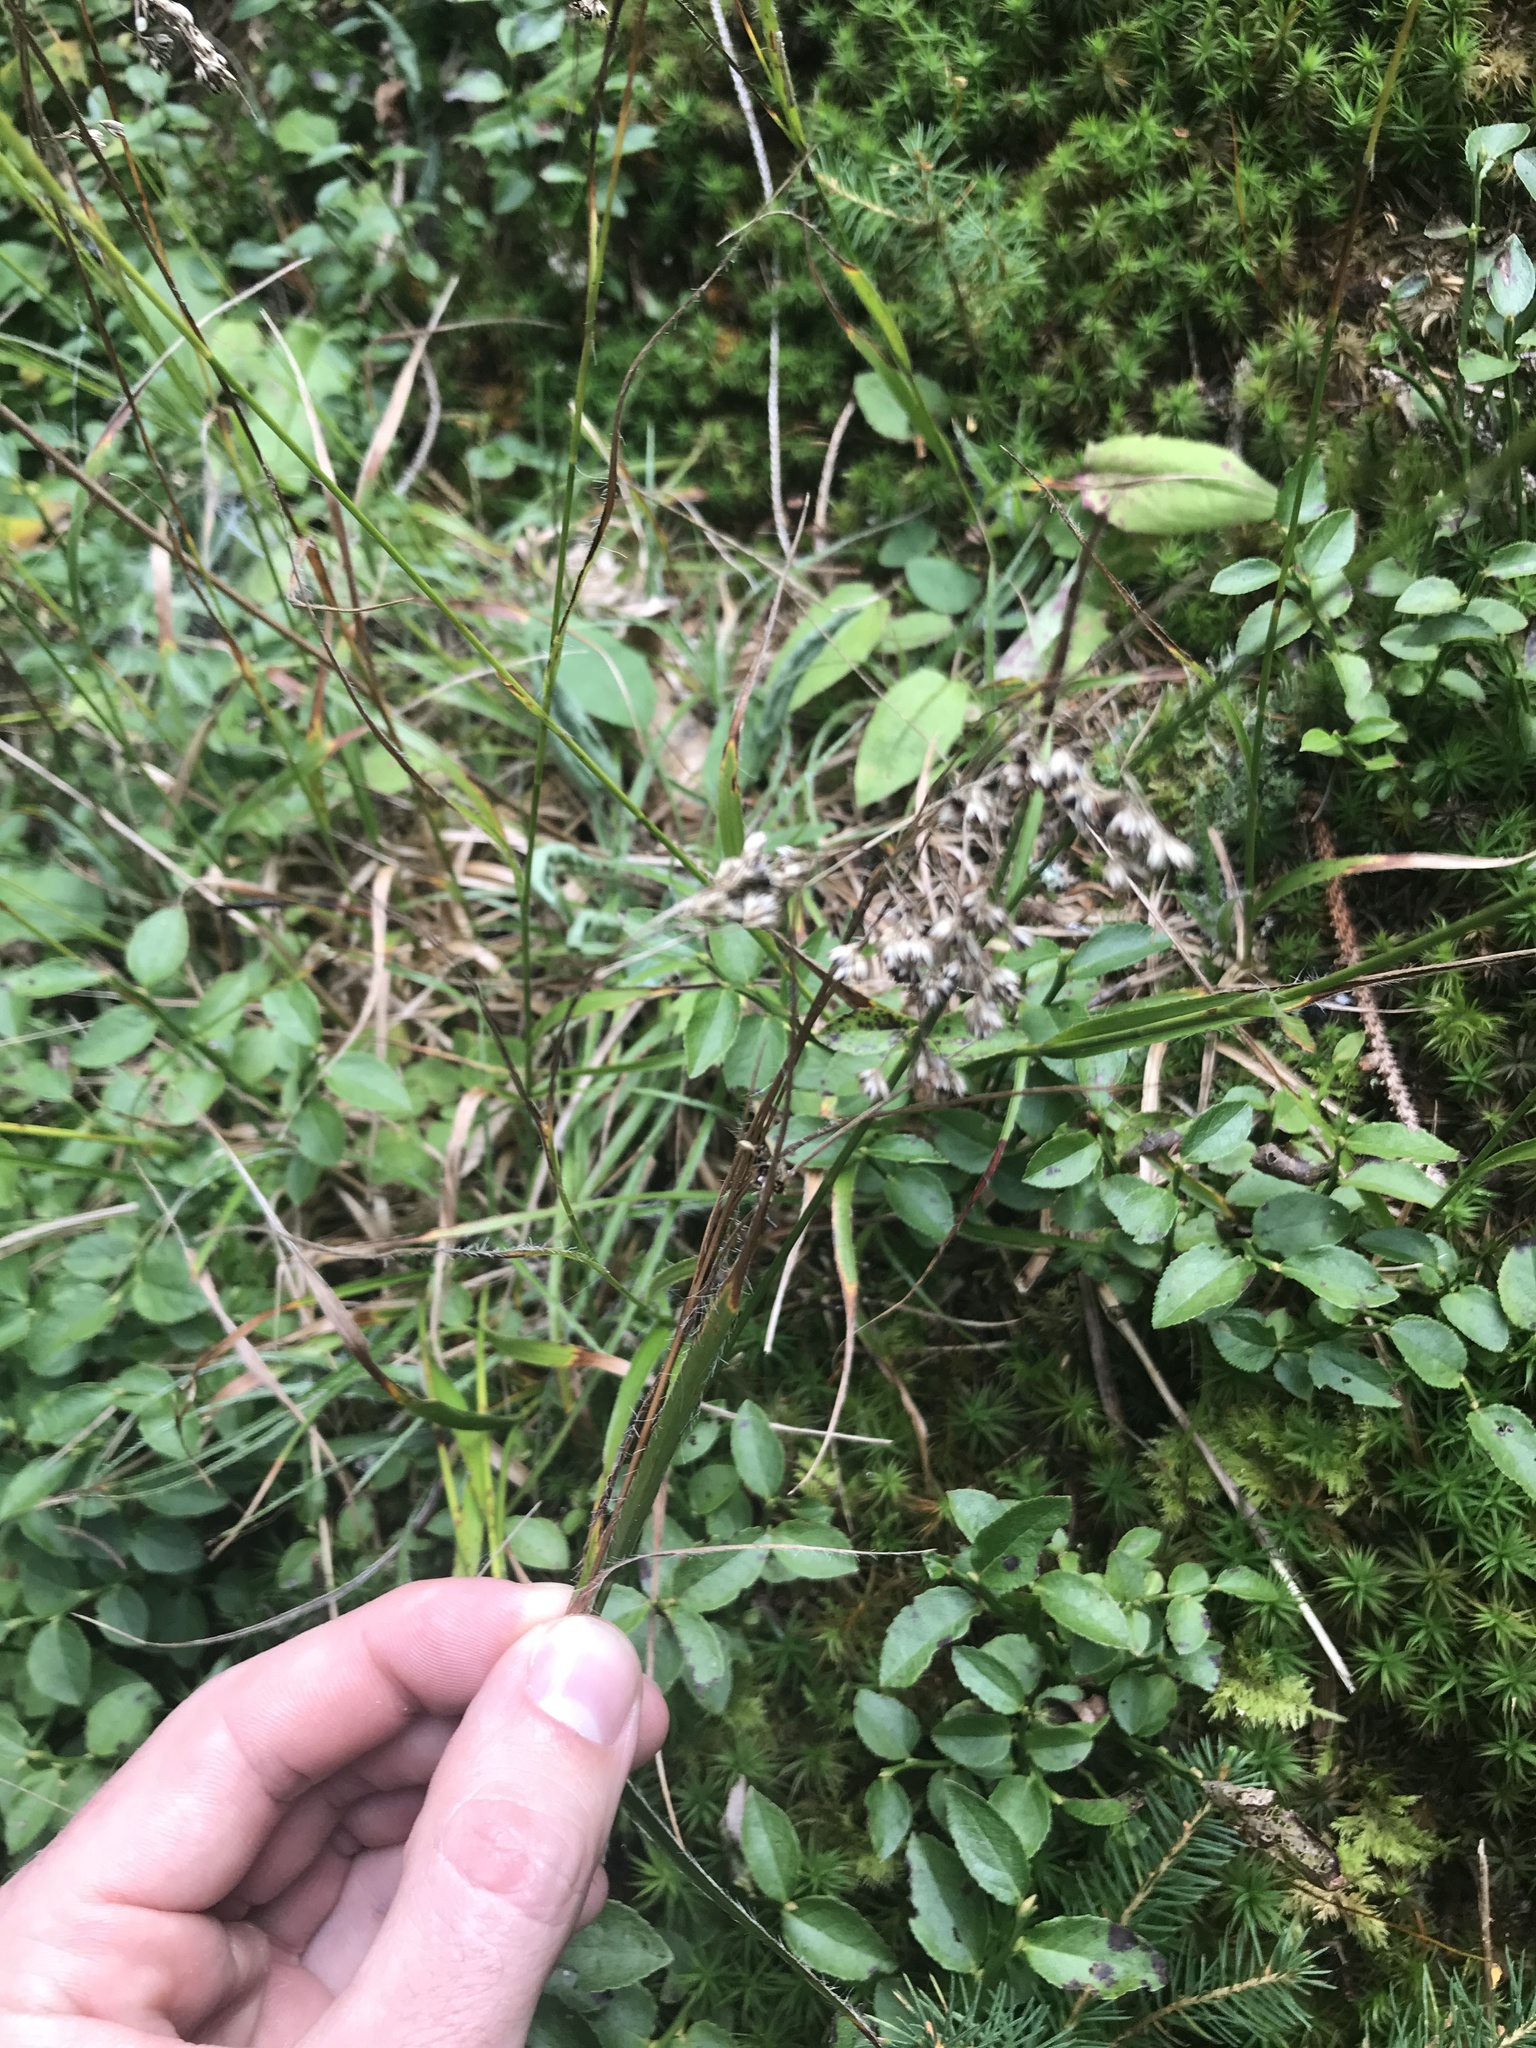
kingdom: Plantae
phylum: Tracheophyta
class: Liliopsida
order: Poales
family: Juncaceae
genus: Luzula
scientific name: Luzula luzuloides
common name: White wood-rush
